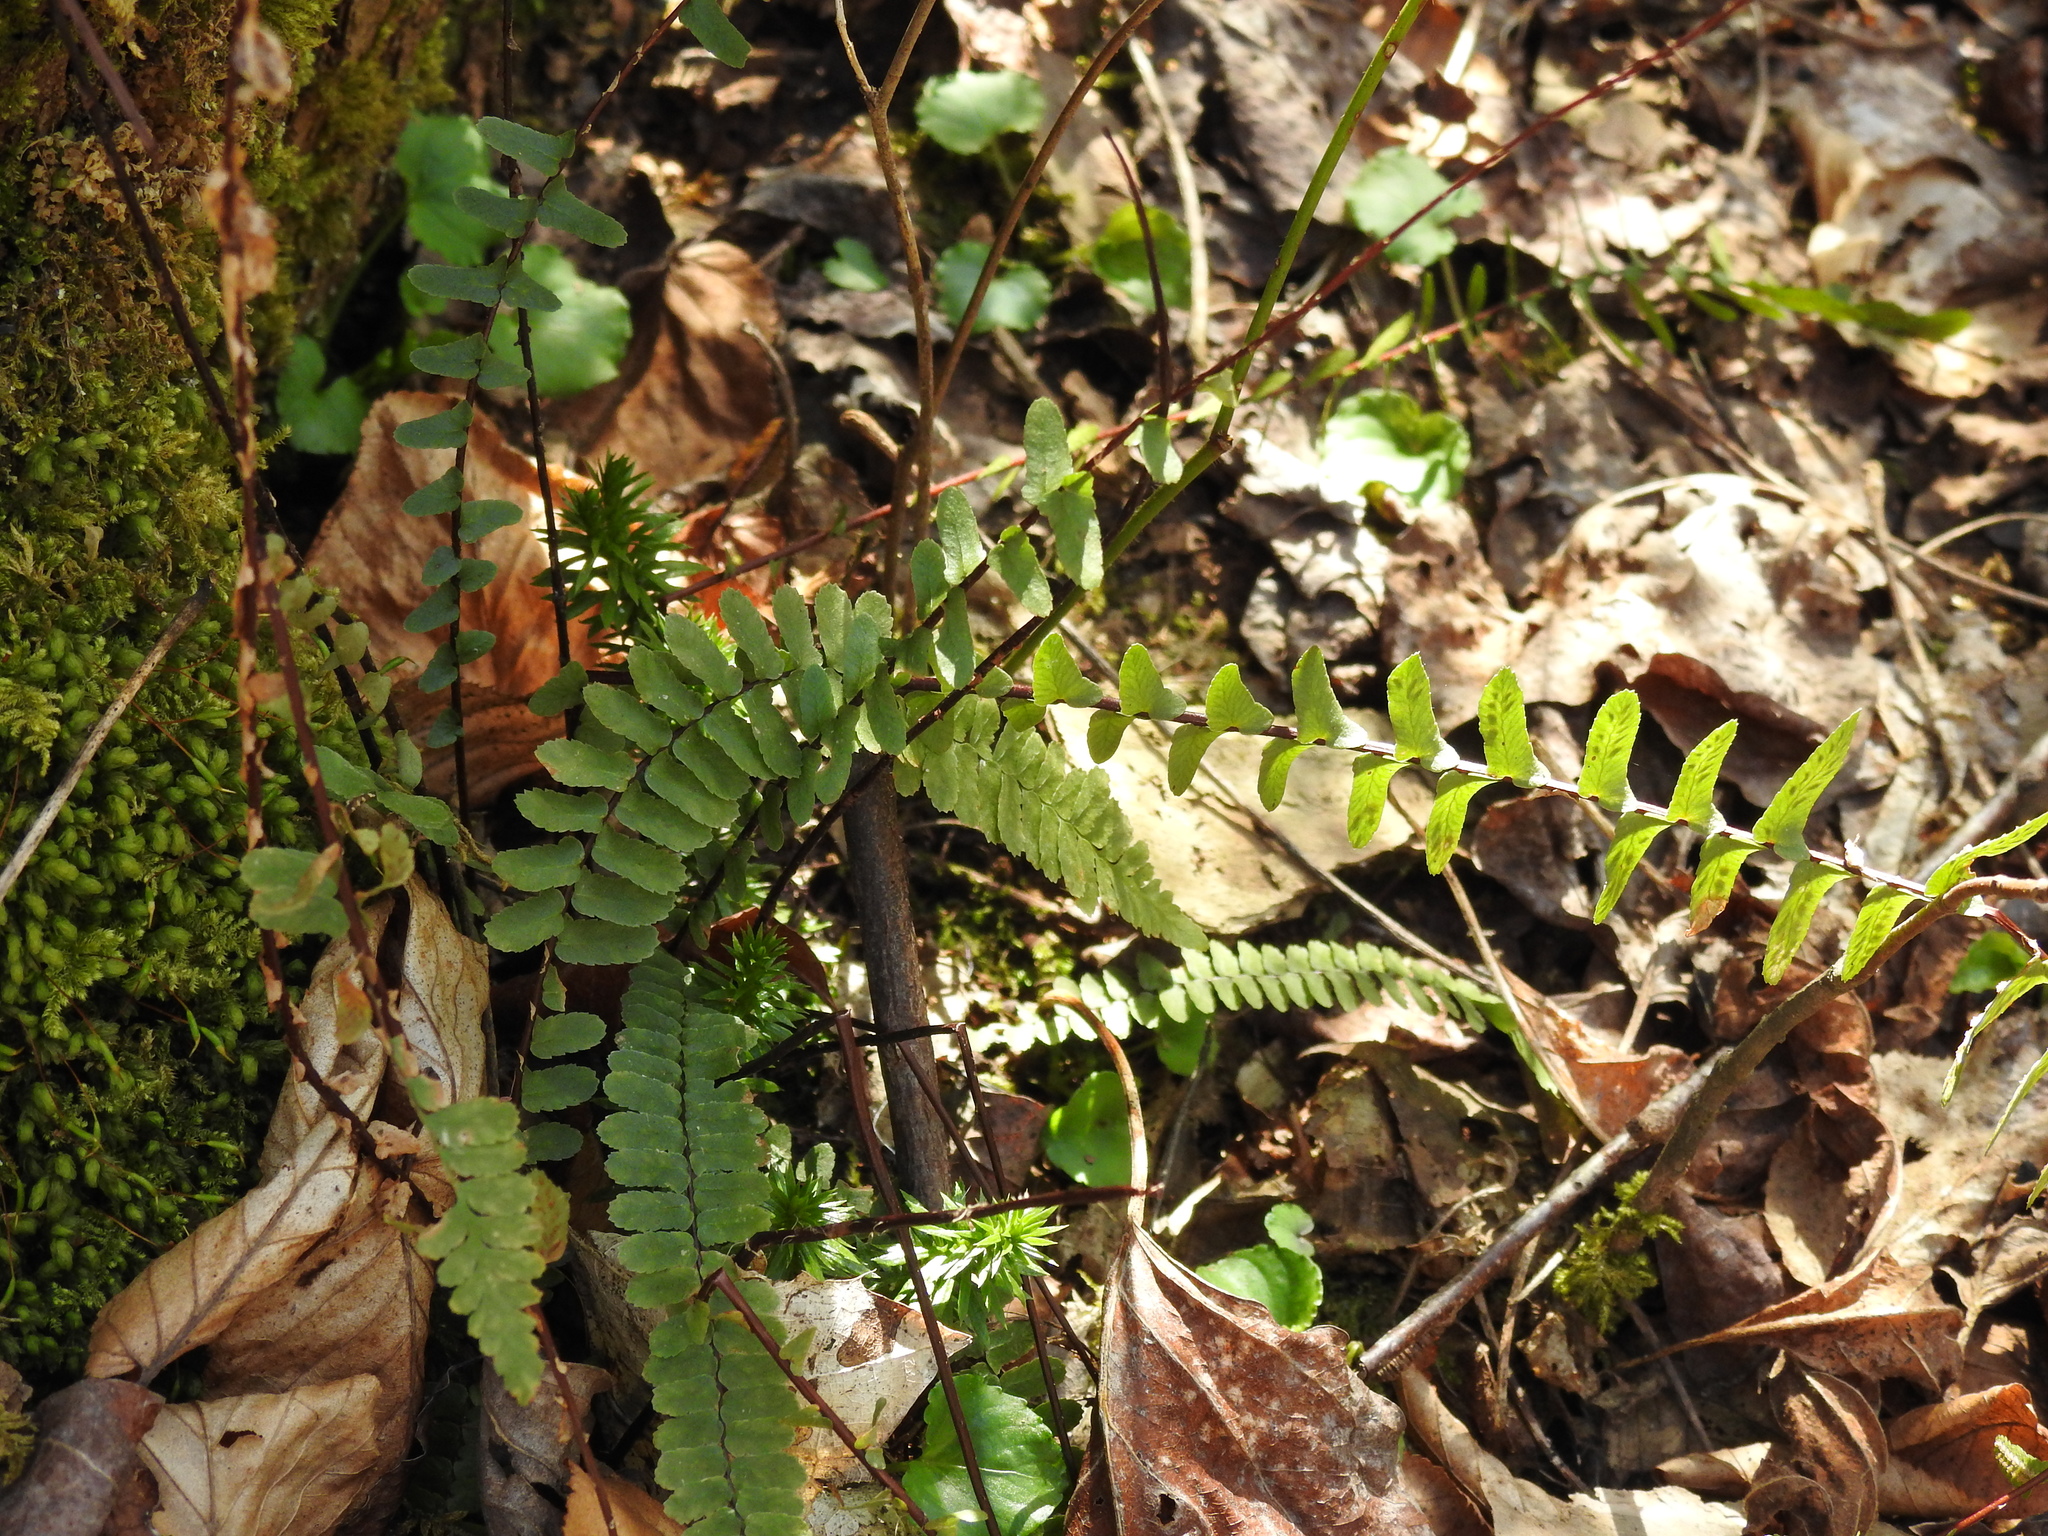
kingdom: Plantae
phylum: Tracheophyta
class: Polypodiopsida
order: Polypodiales
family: Aspleniaceae
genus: Asplenium
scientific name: Asplenium platyneuron
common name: Ebony spleenwort
